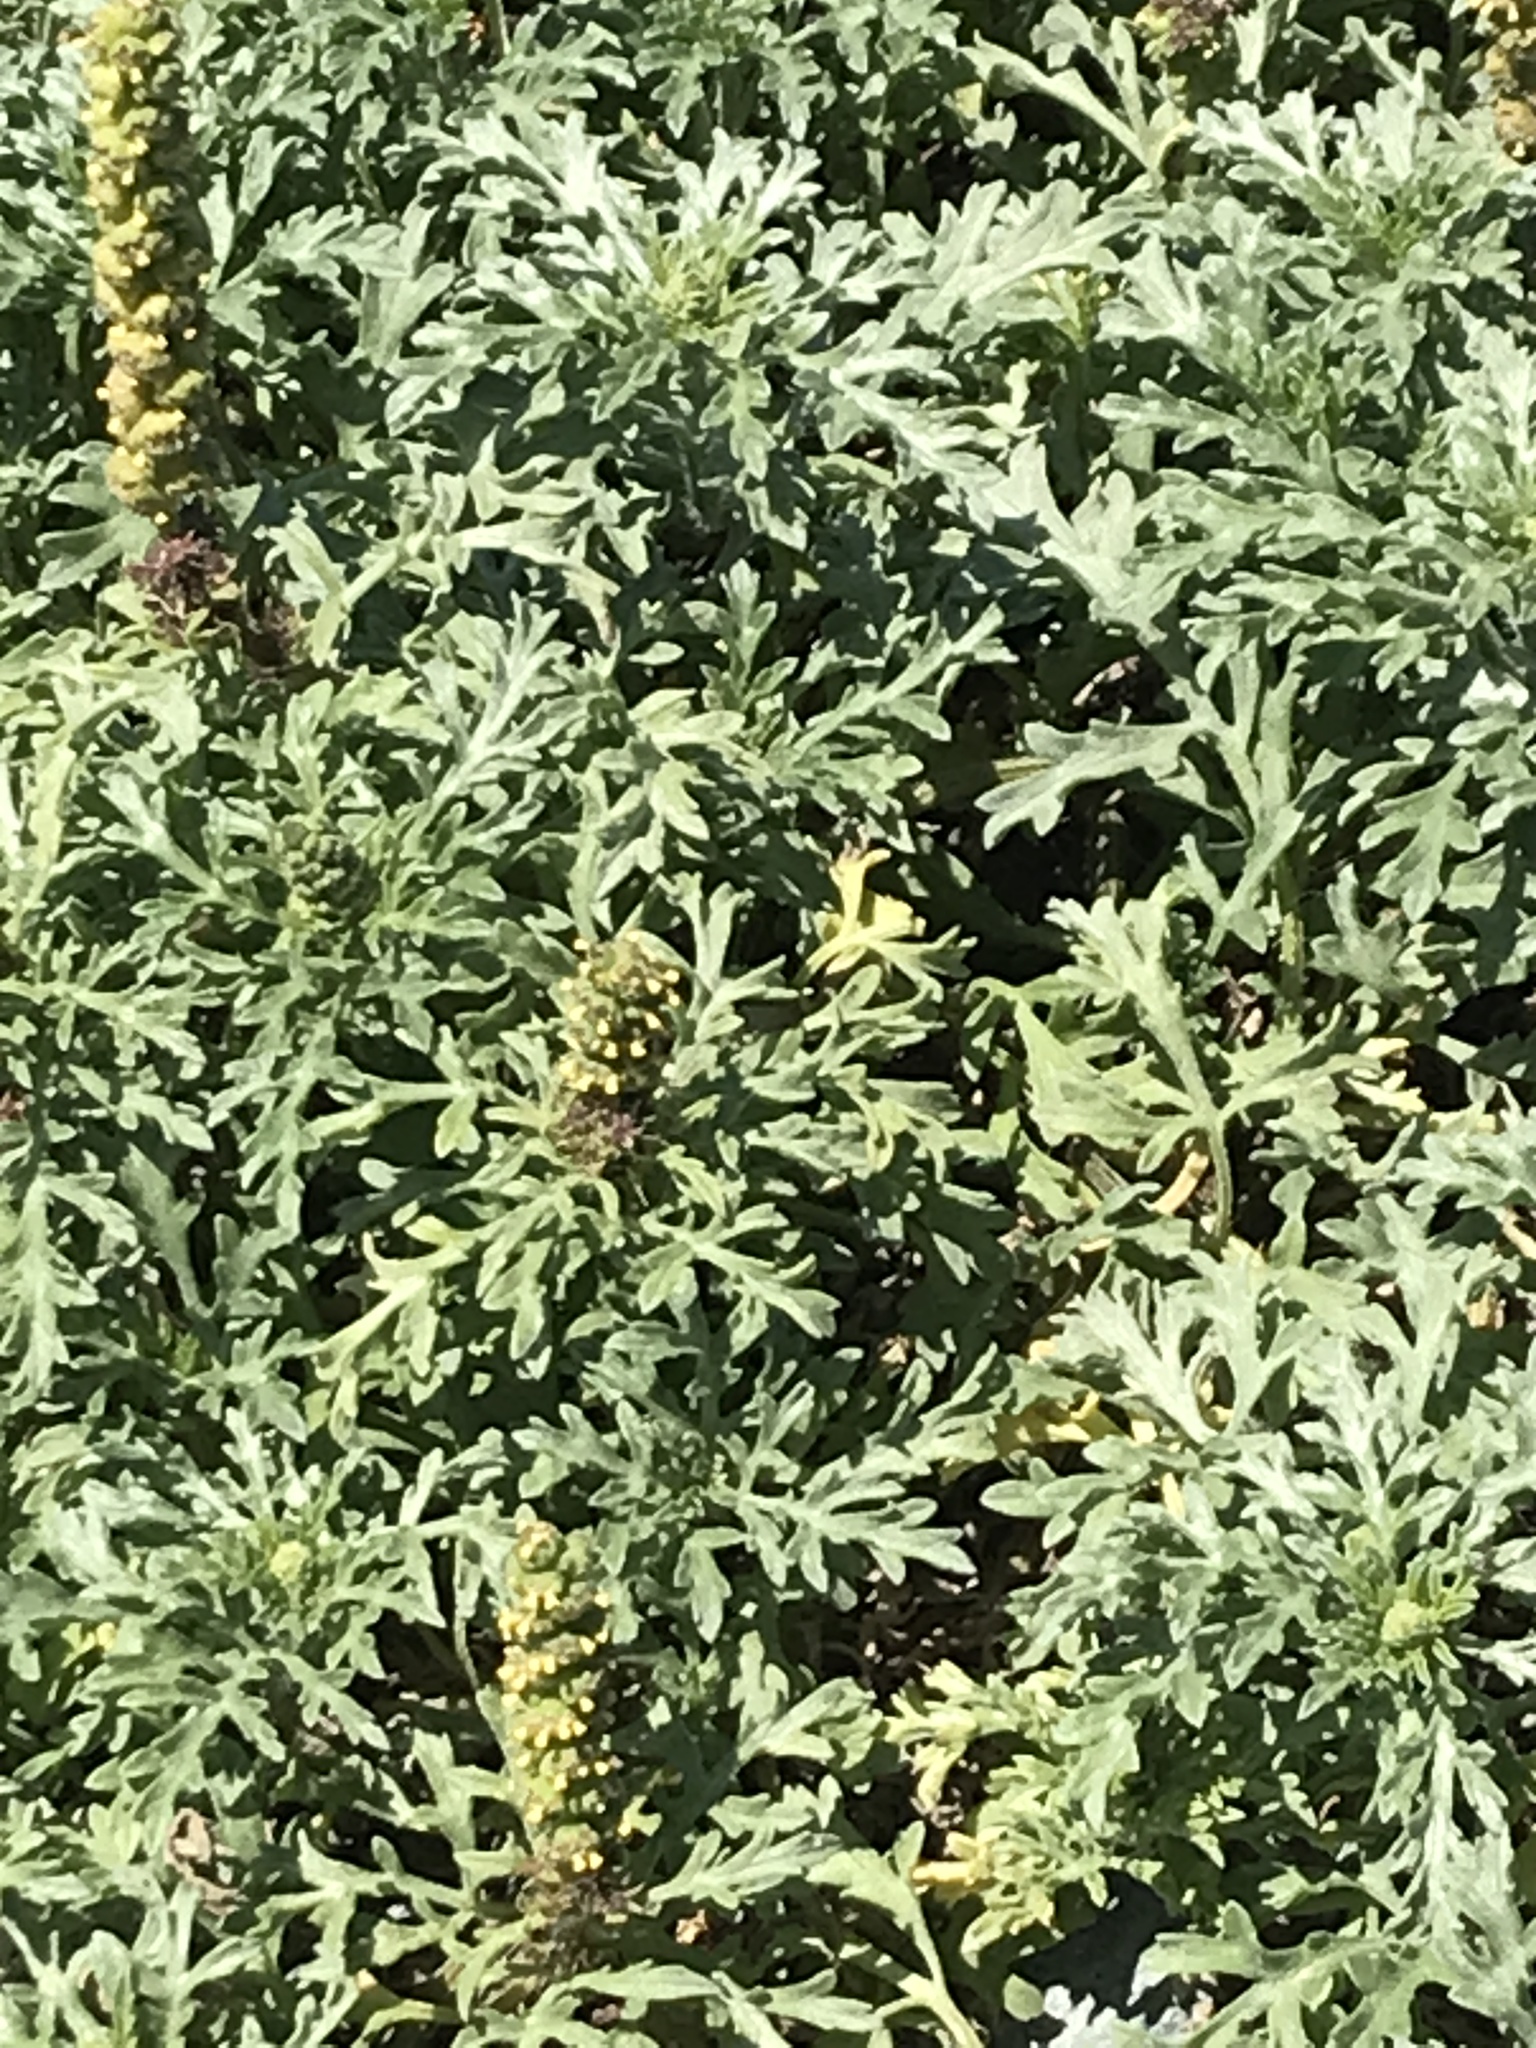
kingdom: Plantae
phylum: Tracheophyta
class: Magnoliopsida
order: Asterales
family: Asteraceae
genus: Ambrosia
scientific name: Ambrosia chamissonis
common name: Beachbur
